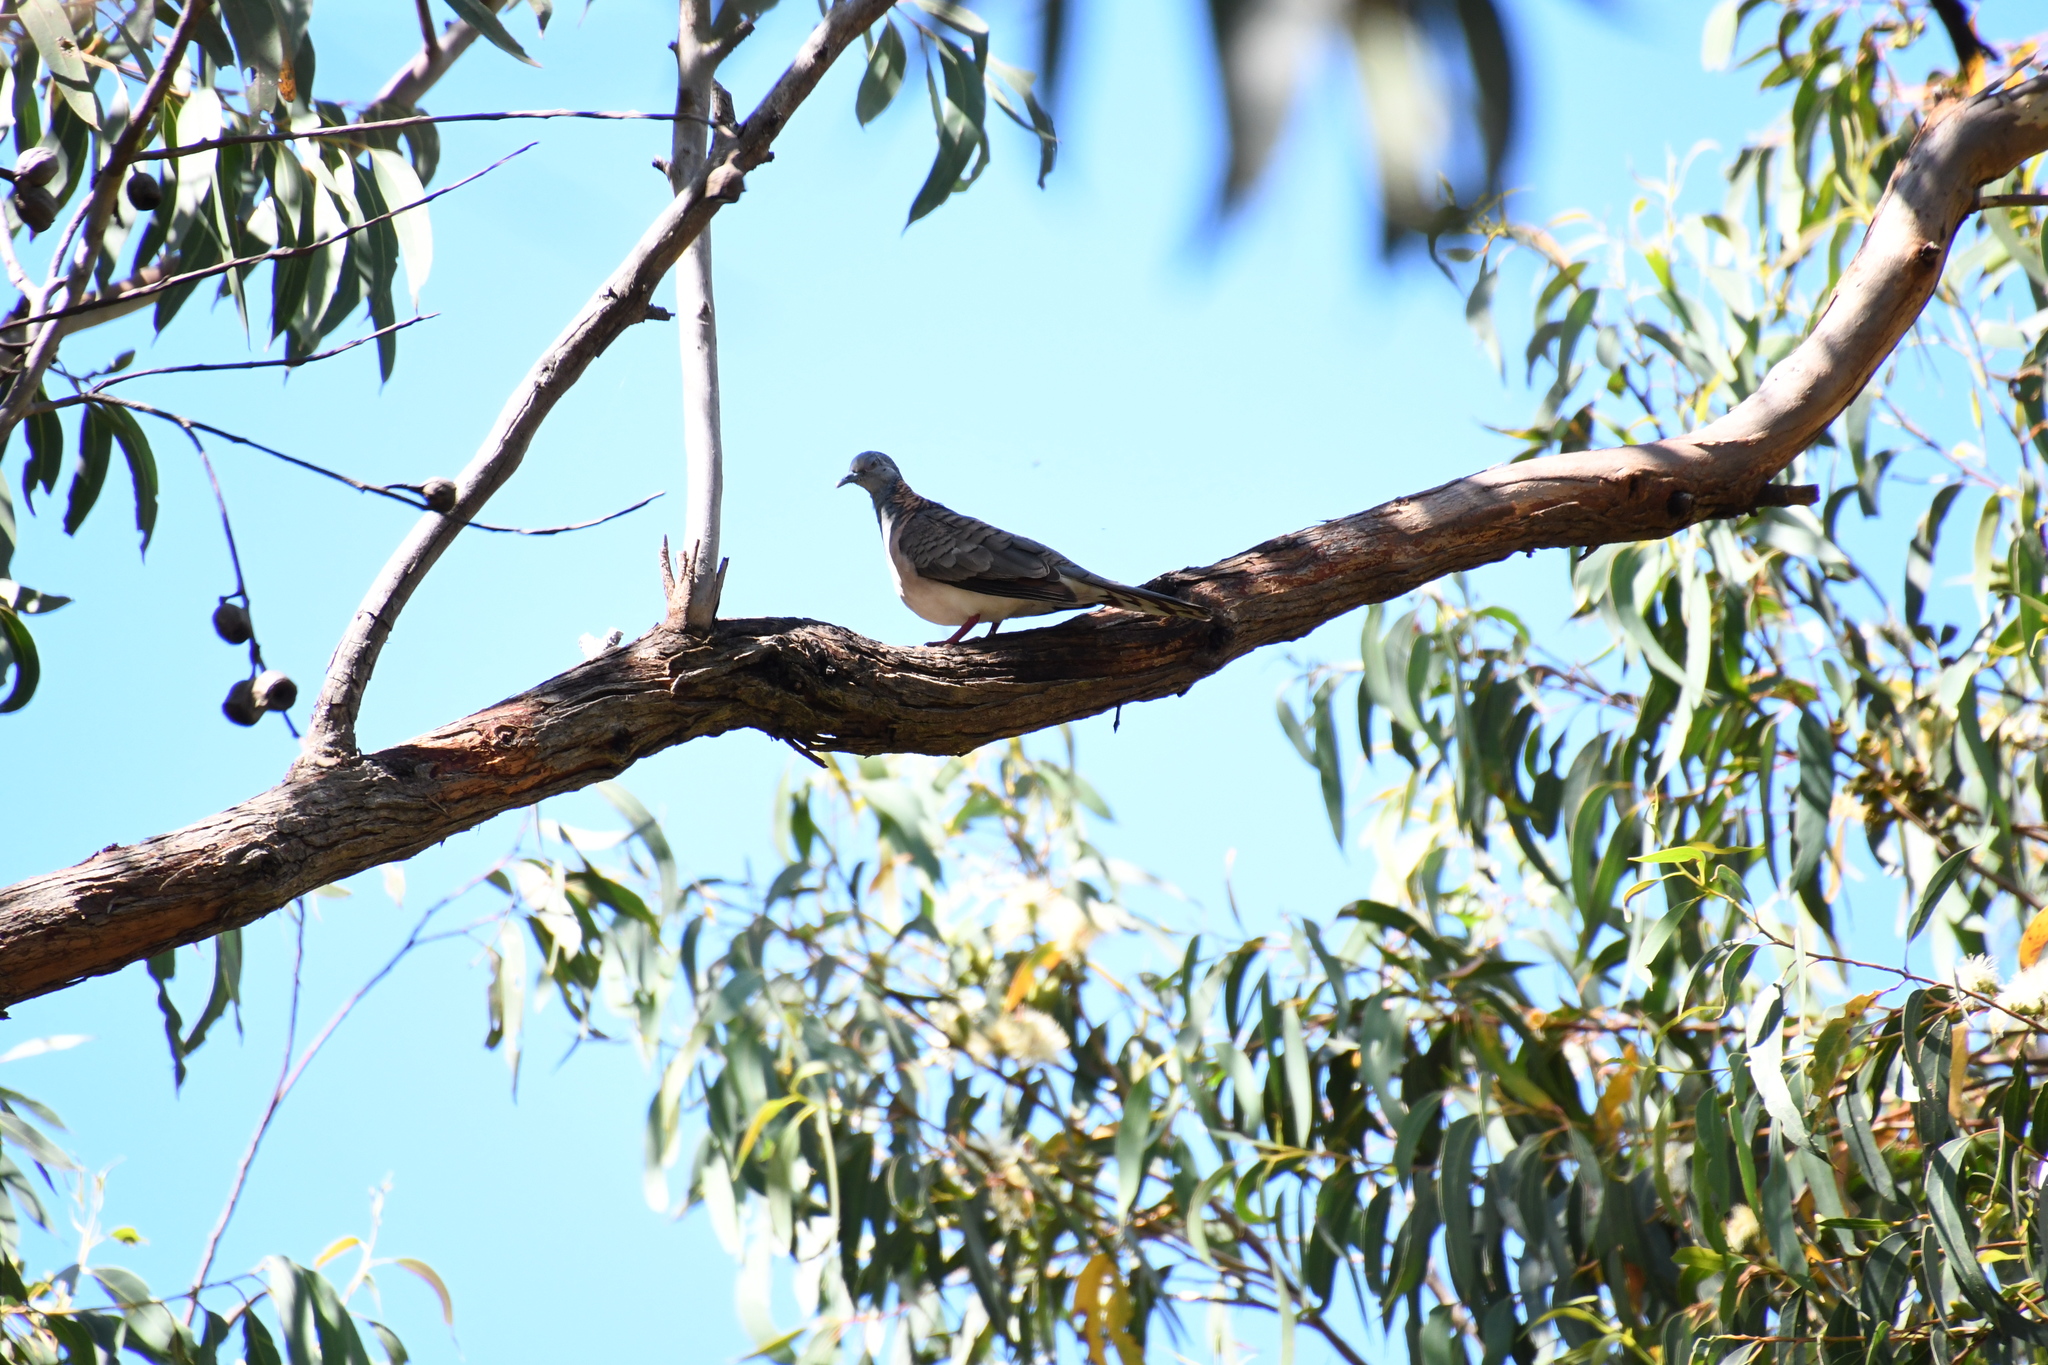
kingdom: Animalia
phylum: Chordata
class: Aves
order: Columbiformes
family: Columbidae
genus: Geopelia
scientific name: Geopelia humeralis
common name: Bar-shouldered dove
